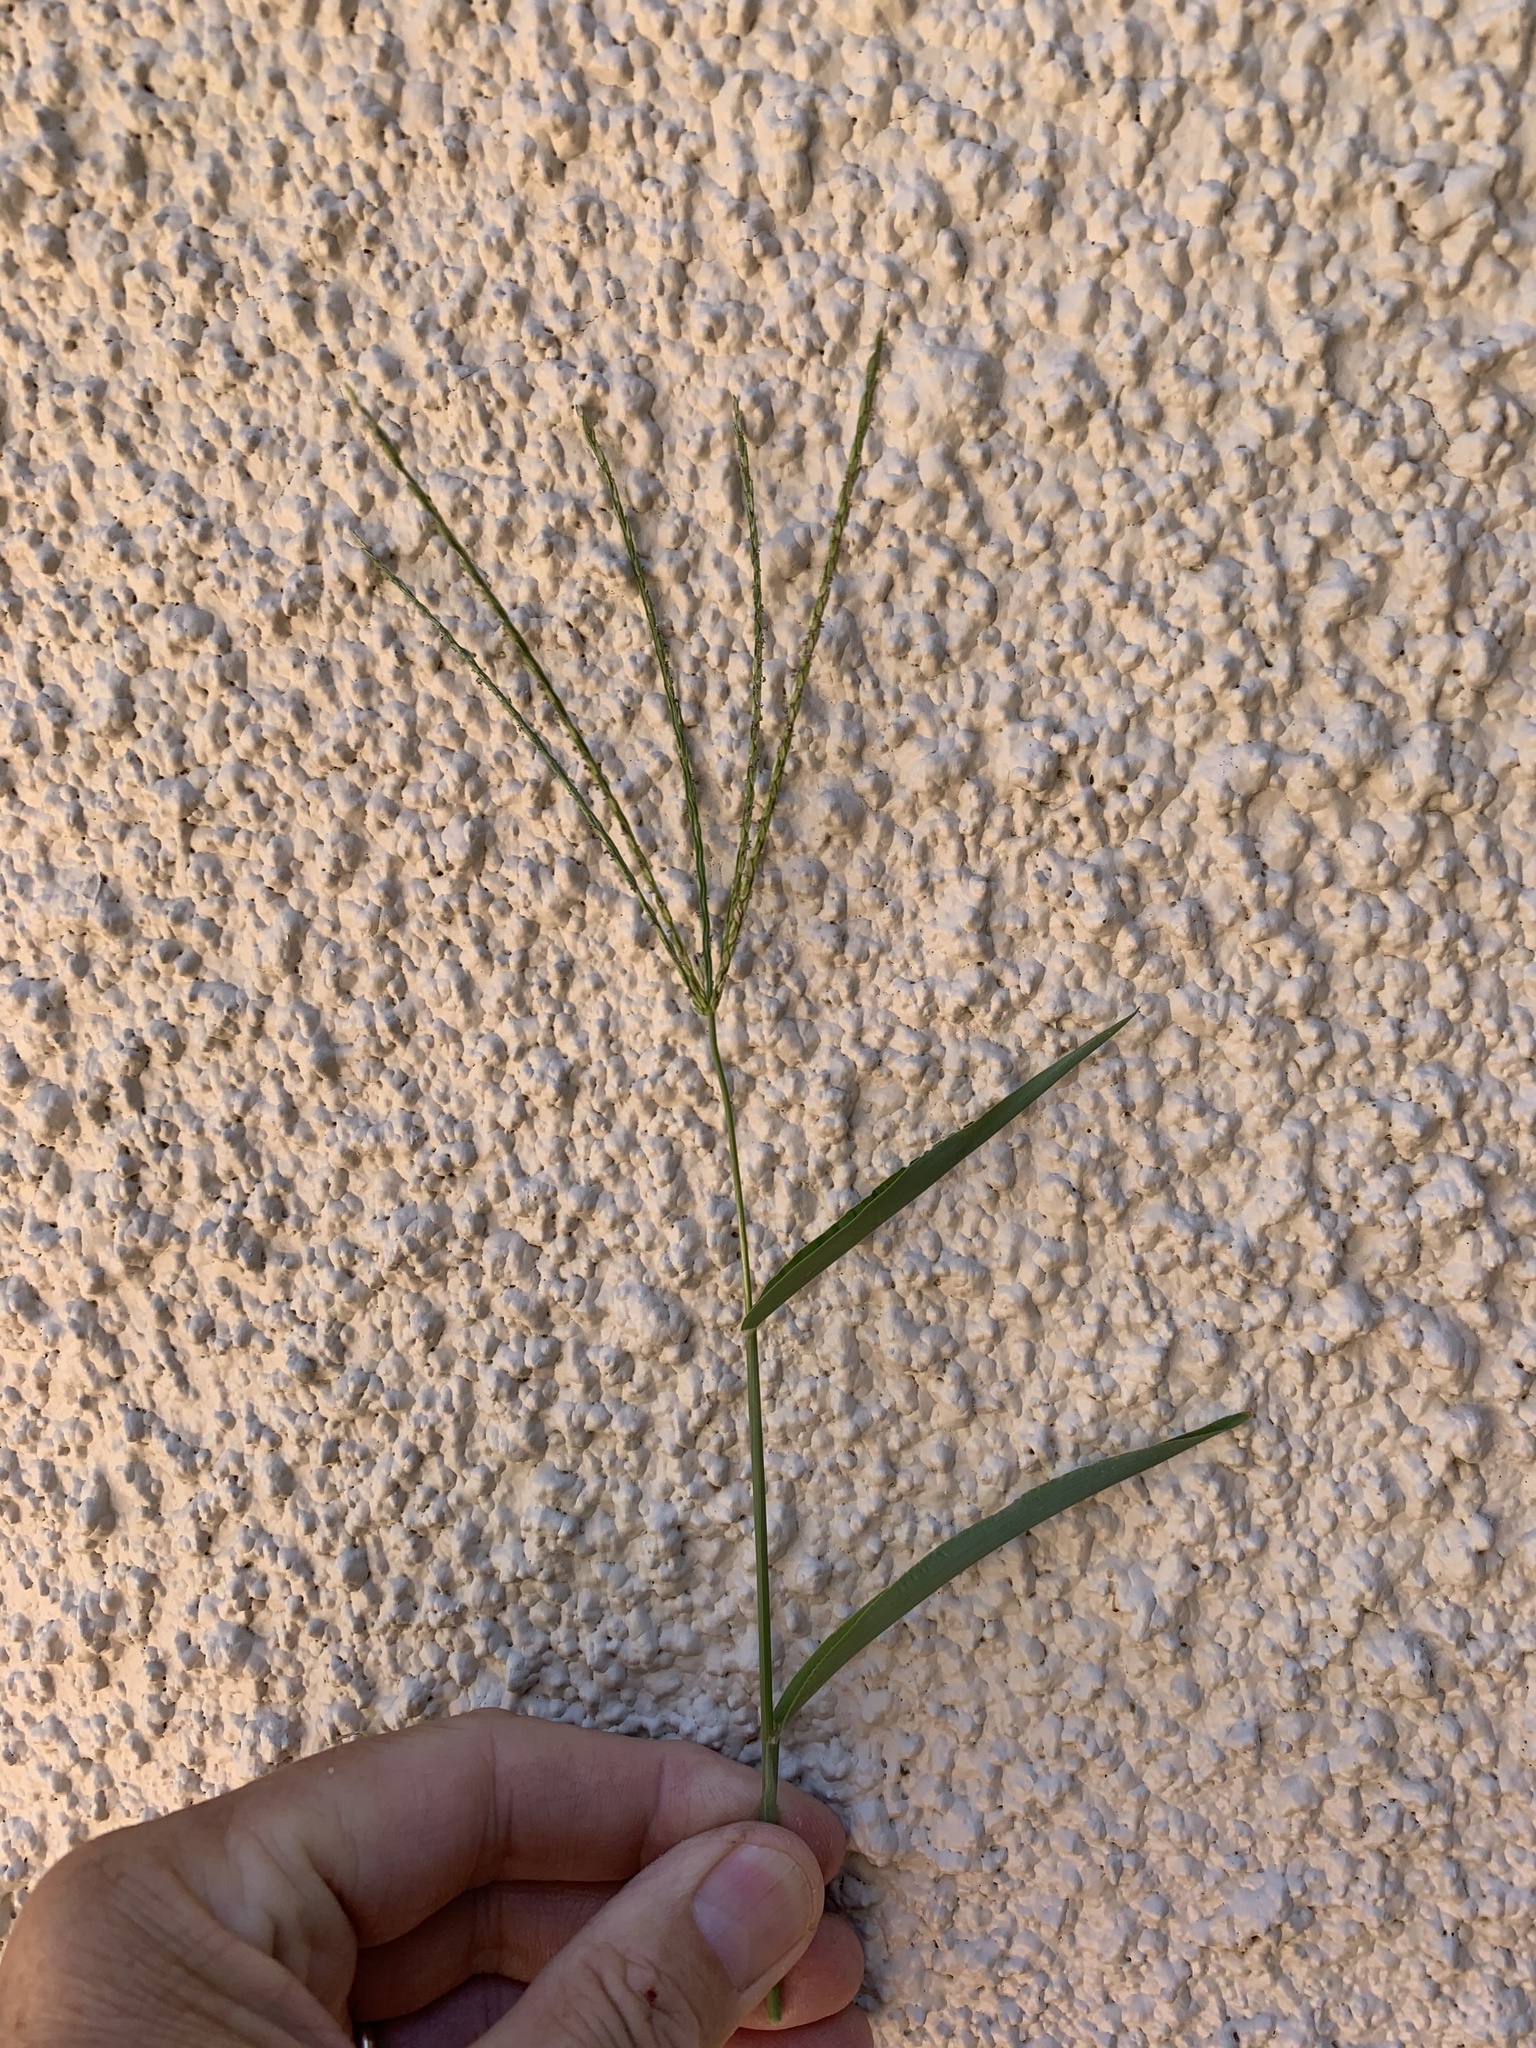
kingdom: Plantae
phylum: Tracheophyta
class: Liliopsida
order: Poales
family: Poaceae
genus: Digitaria
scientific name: Digitaria sanguinalis
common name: Hairy crabgrass
